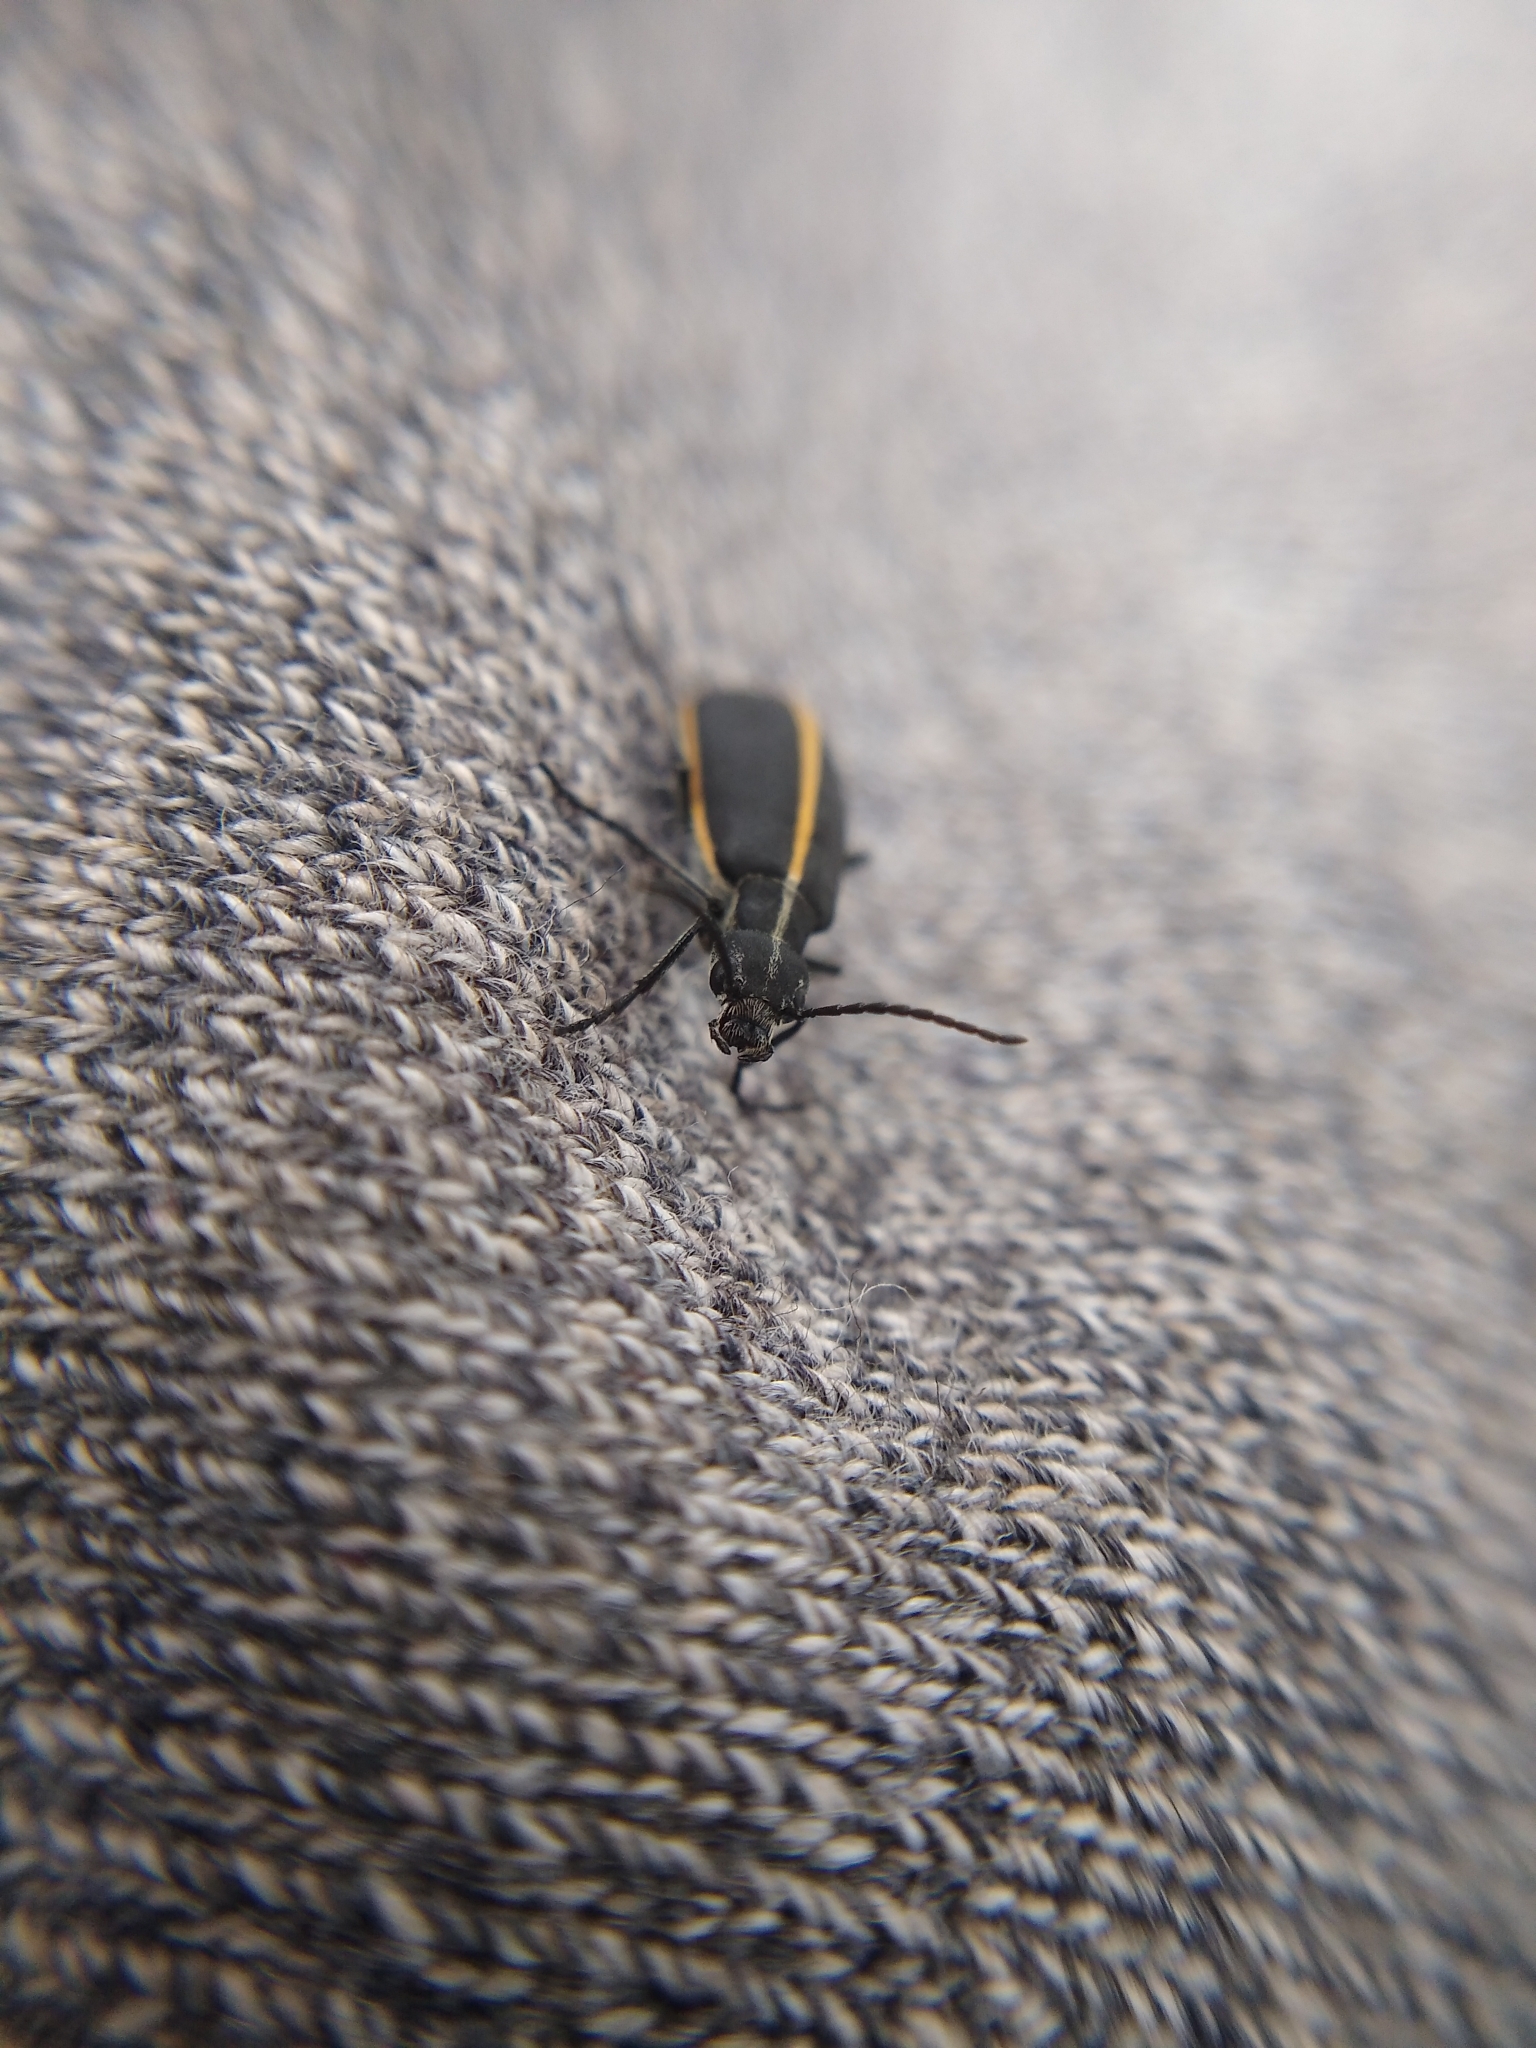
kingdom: Animalia
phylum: Arthropoda
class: Insecta
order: Coleoptera
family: Meloidae
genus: Epicauta
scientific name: Epicauta cinctipennis
